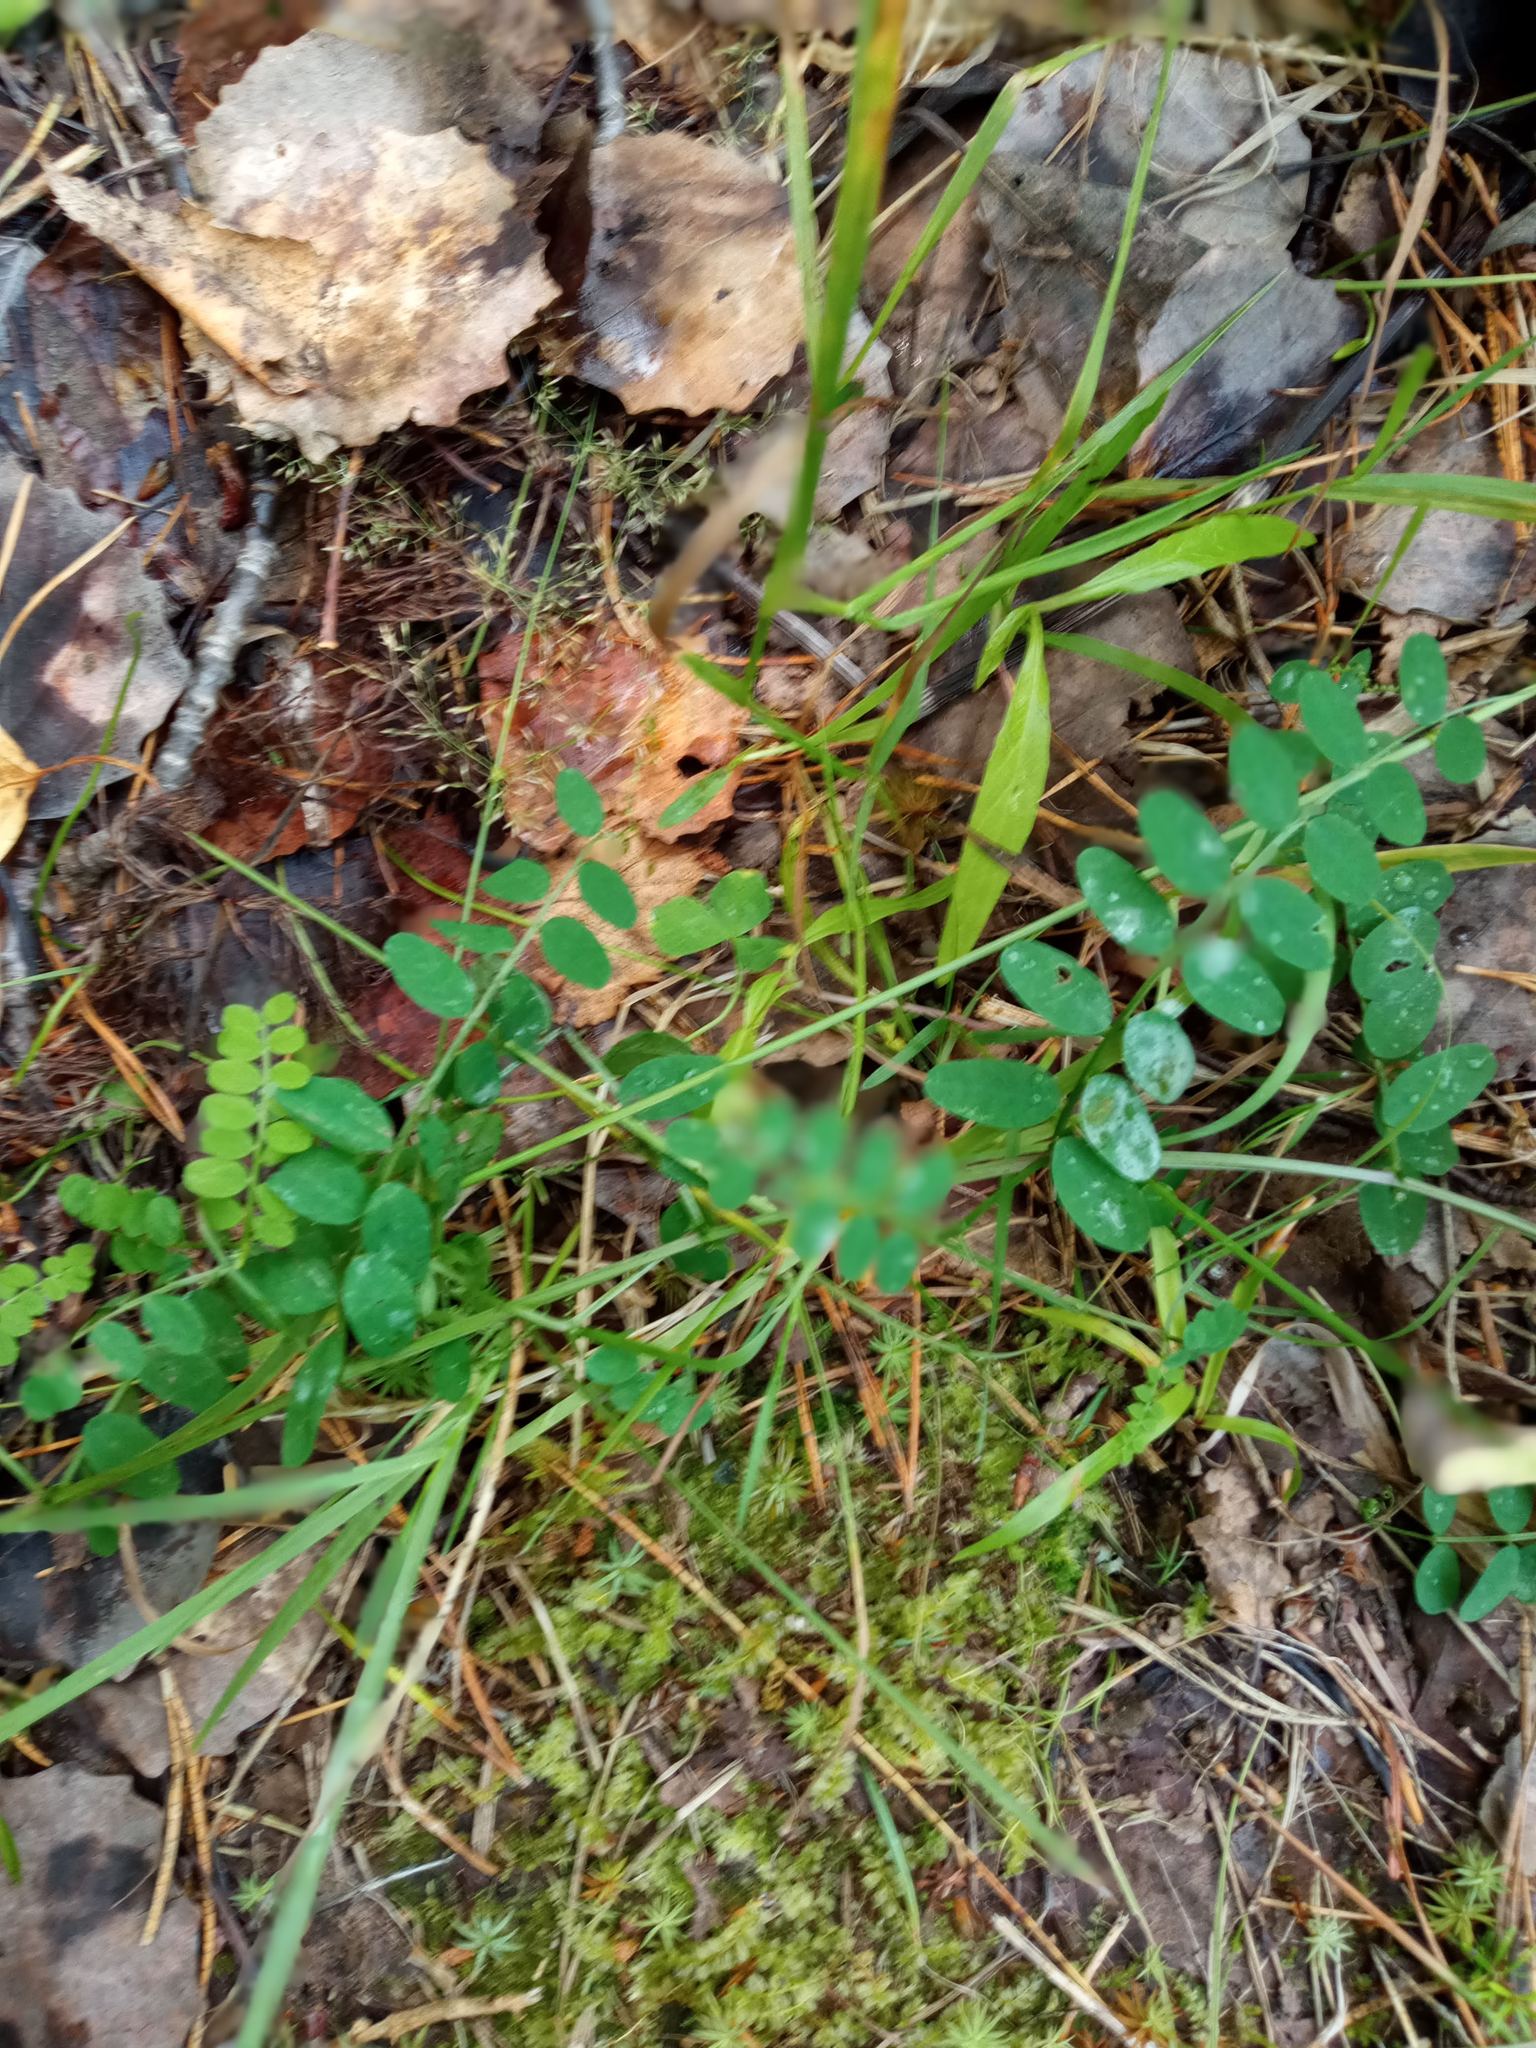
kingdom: Plantae
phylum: Tracheophyta
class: Magnoliopsida
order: Fabales
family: Fabaceae
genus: Vicia
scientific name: Vicia sylvatica
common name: Wood vetch
